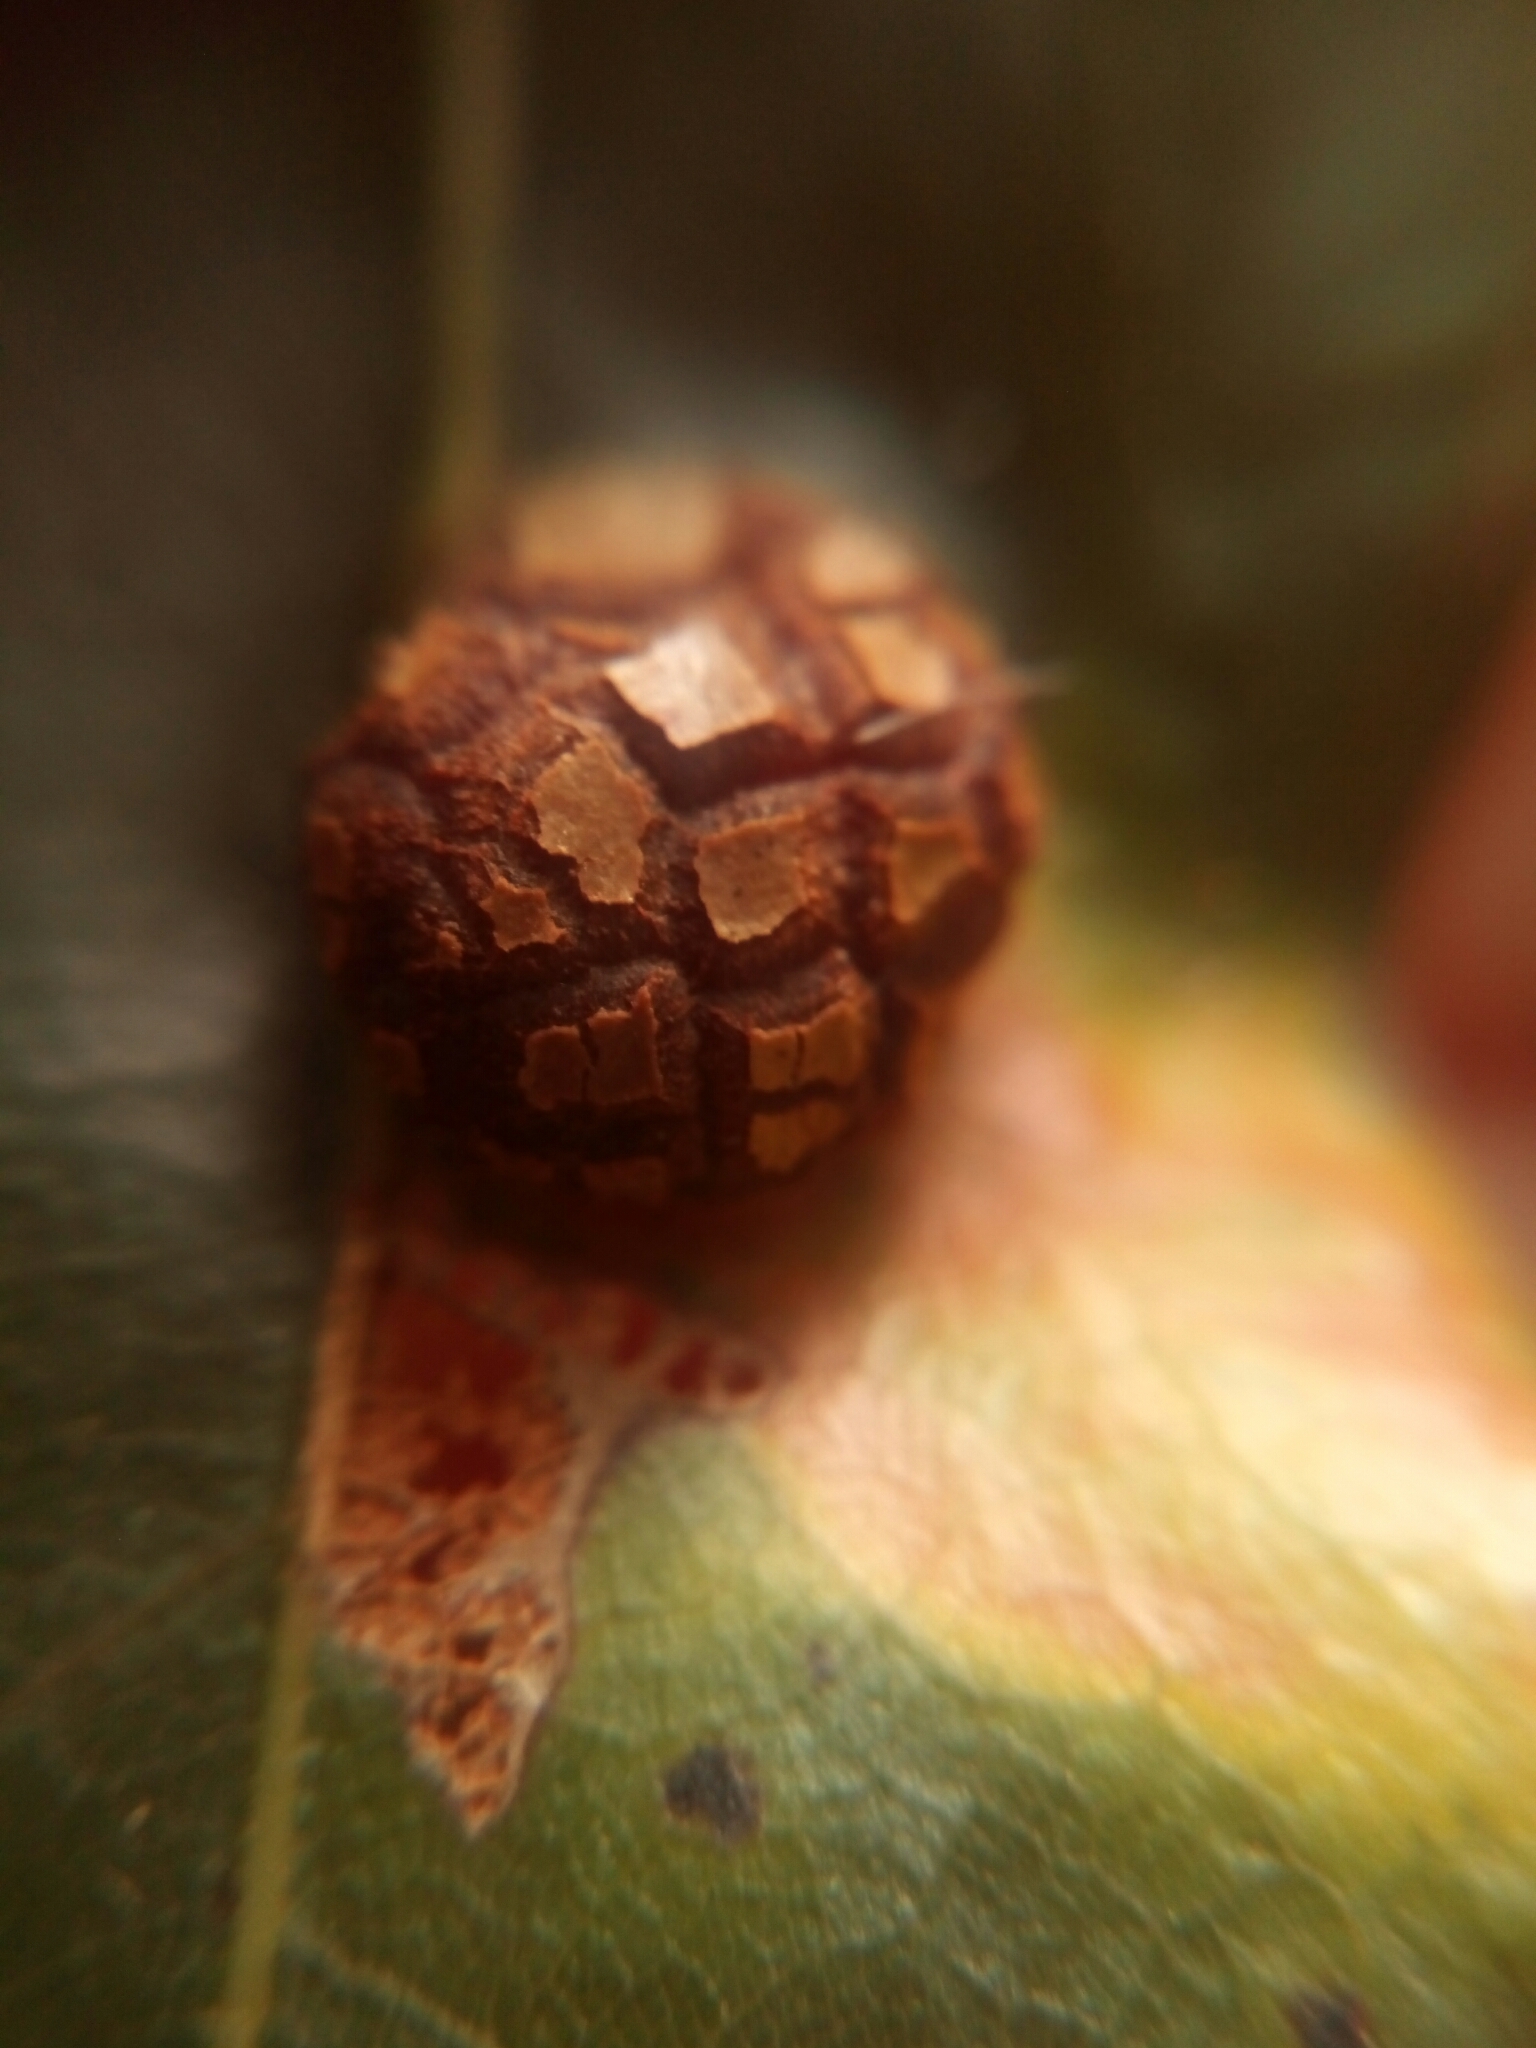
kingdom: Animalia
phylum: Arthropoda
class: Insecta
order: Diptera
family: Cecidomyiidae
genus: Polystepha
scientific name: Polystepha pilulae
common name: Oak leaf gall midge
